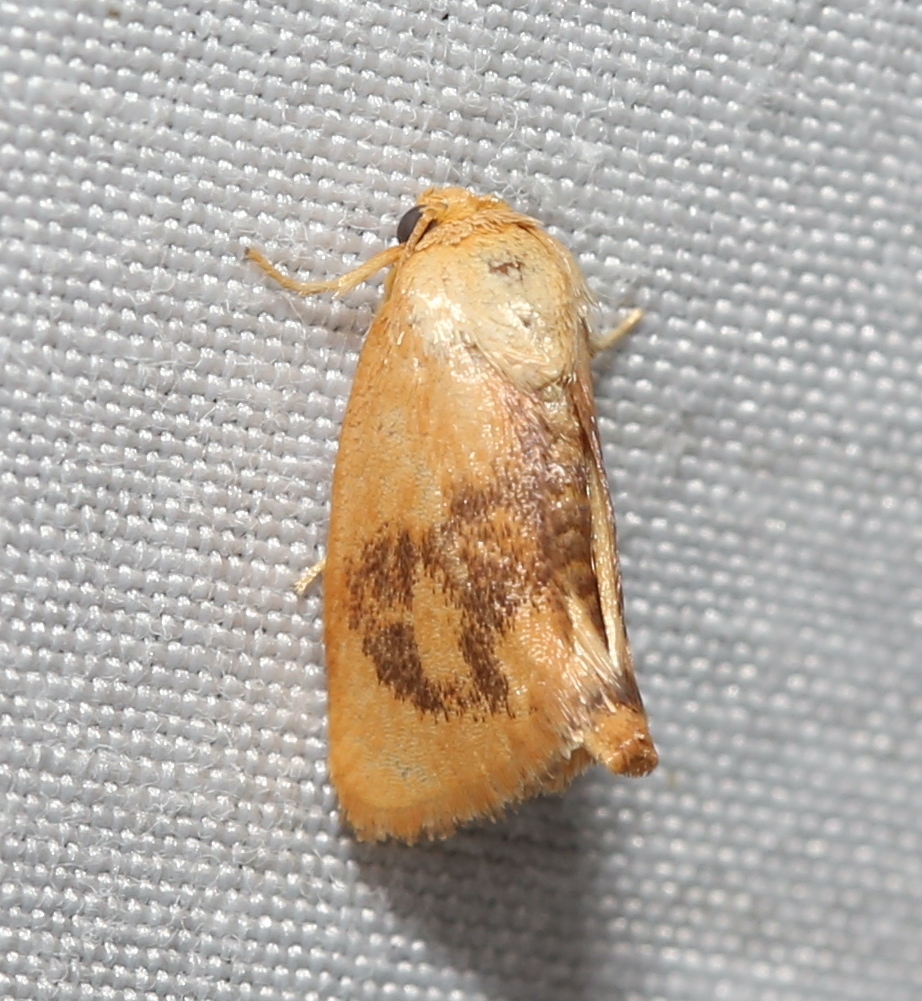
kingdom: Animalia
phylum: Arthropoda
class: Insecta
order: Lepidoptera
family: Limacodidae
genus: Tortricidia
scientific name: Tortricidia flexuosa
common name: Abbreviated button slug moth
